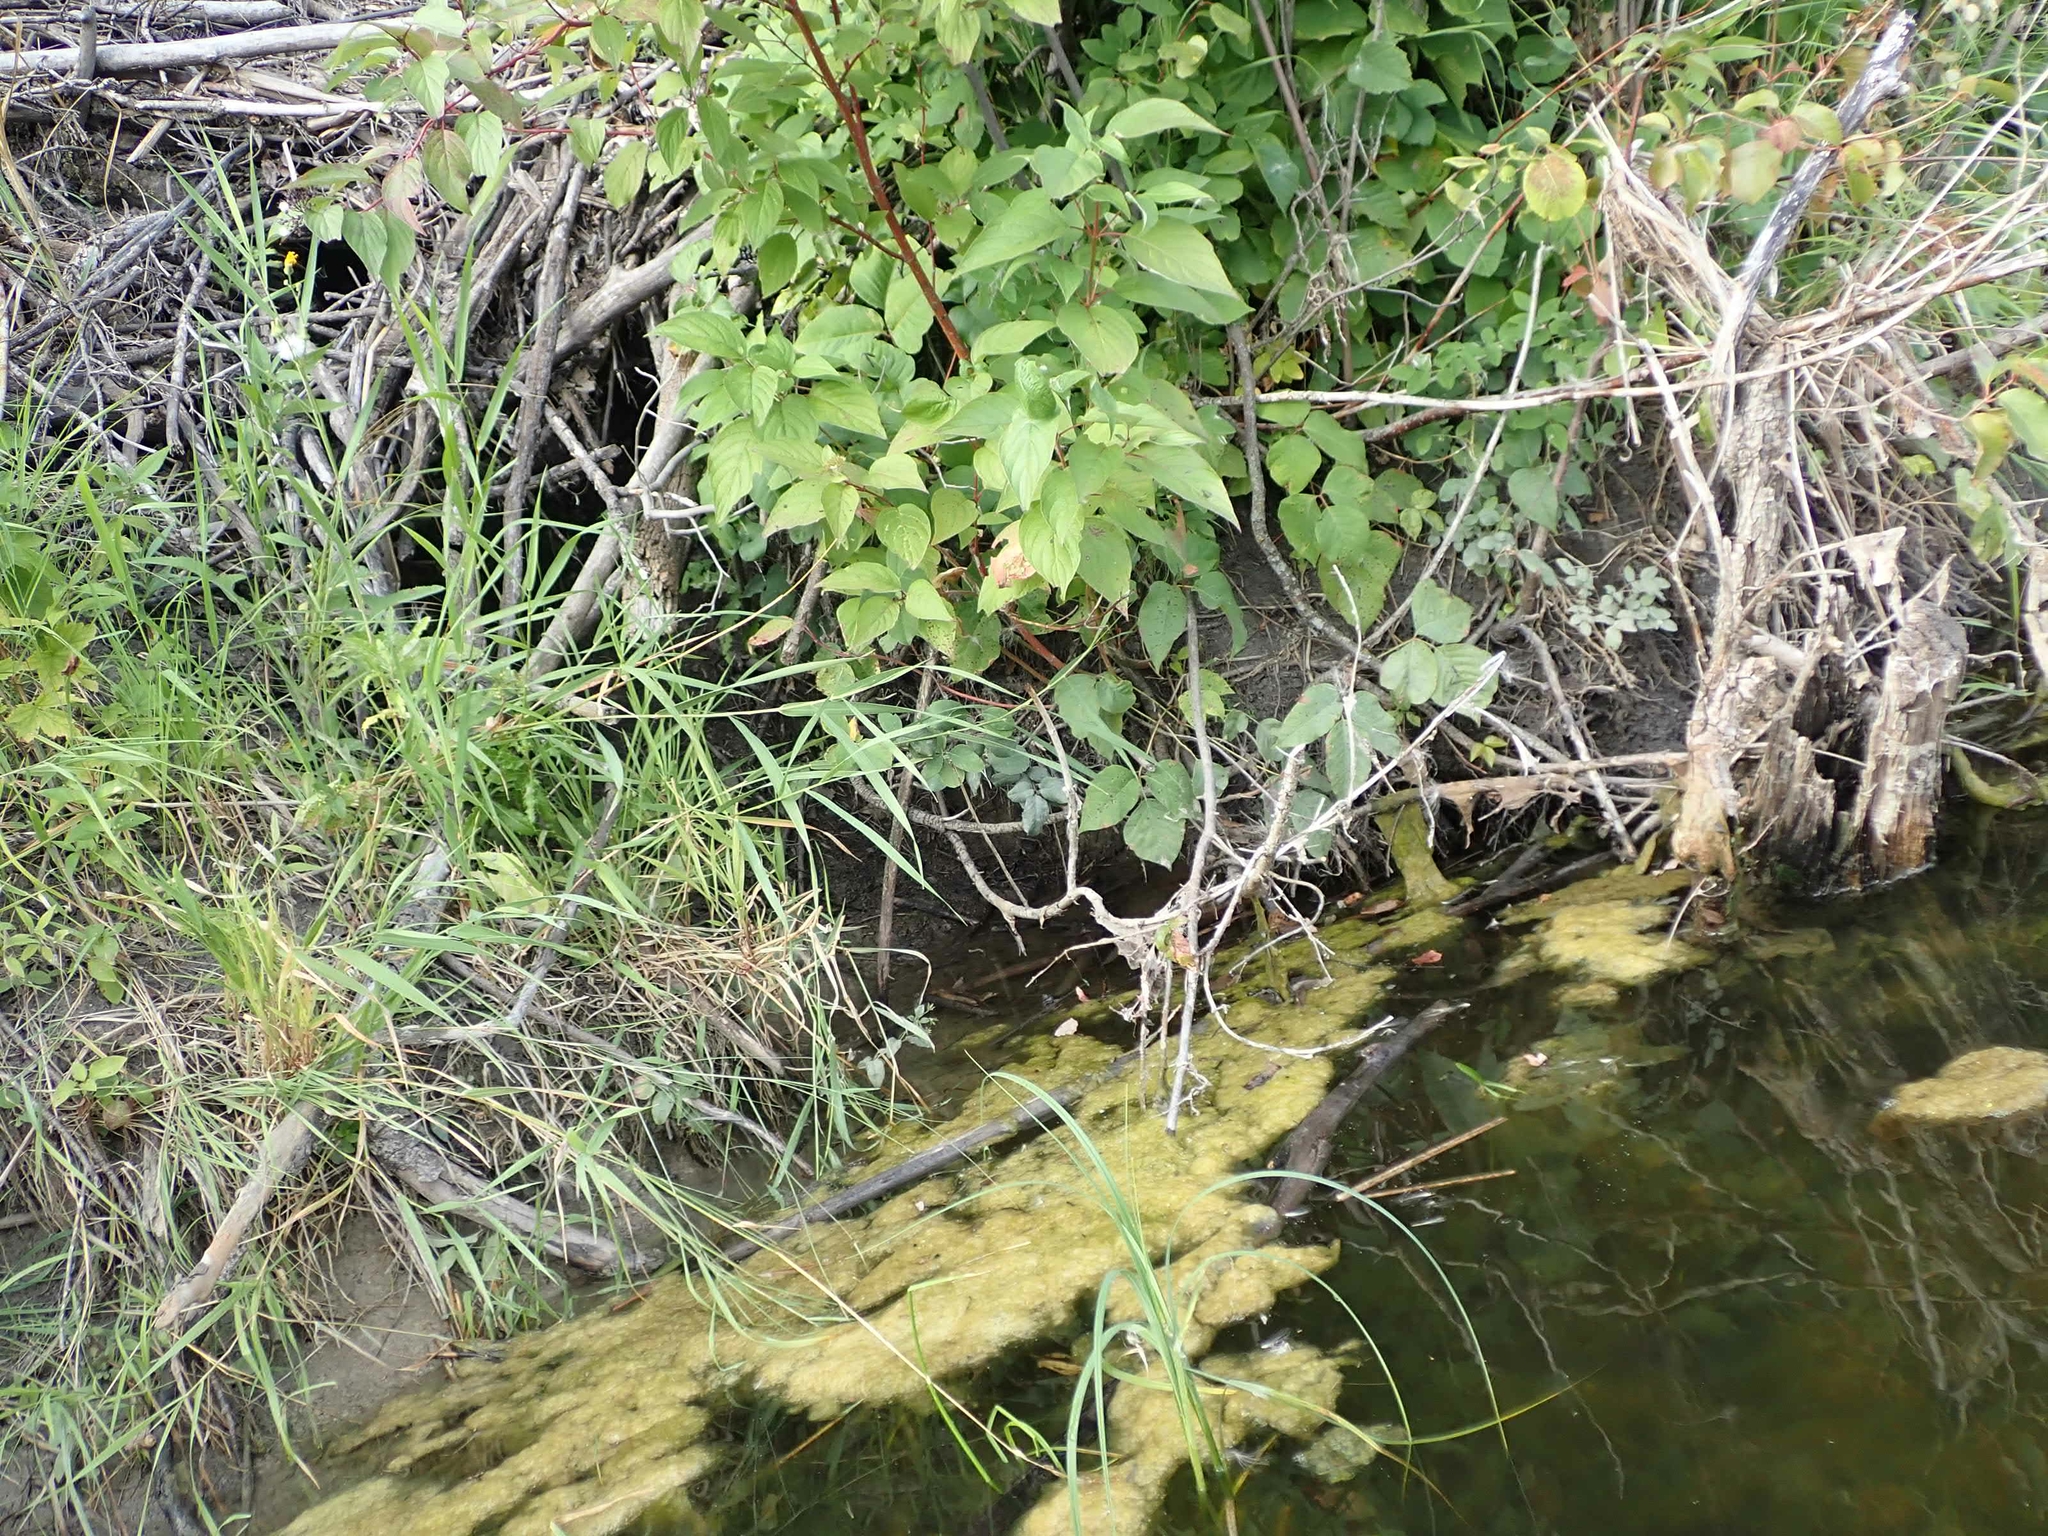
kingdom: Animalia
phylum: Chordata
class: Mammalia
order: Rodentia
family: Castoridae
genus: Castor
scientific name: Castor canadensis
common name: American beaver
